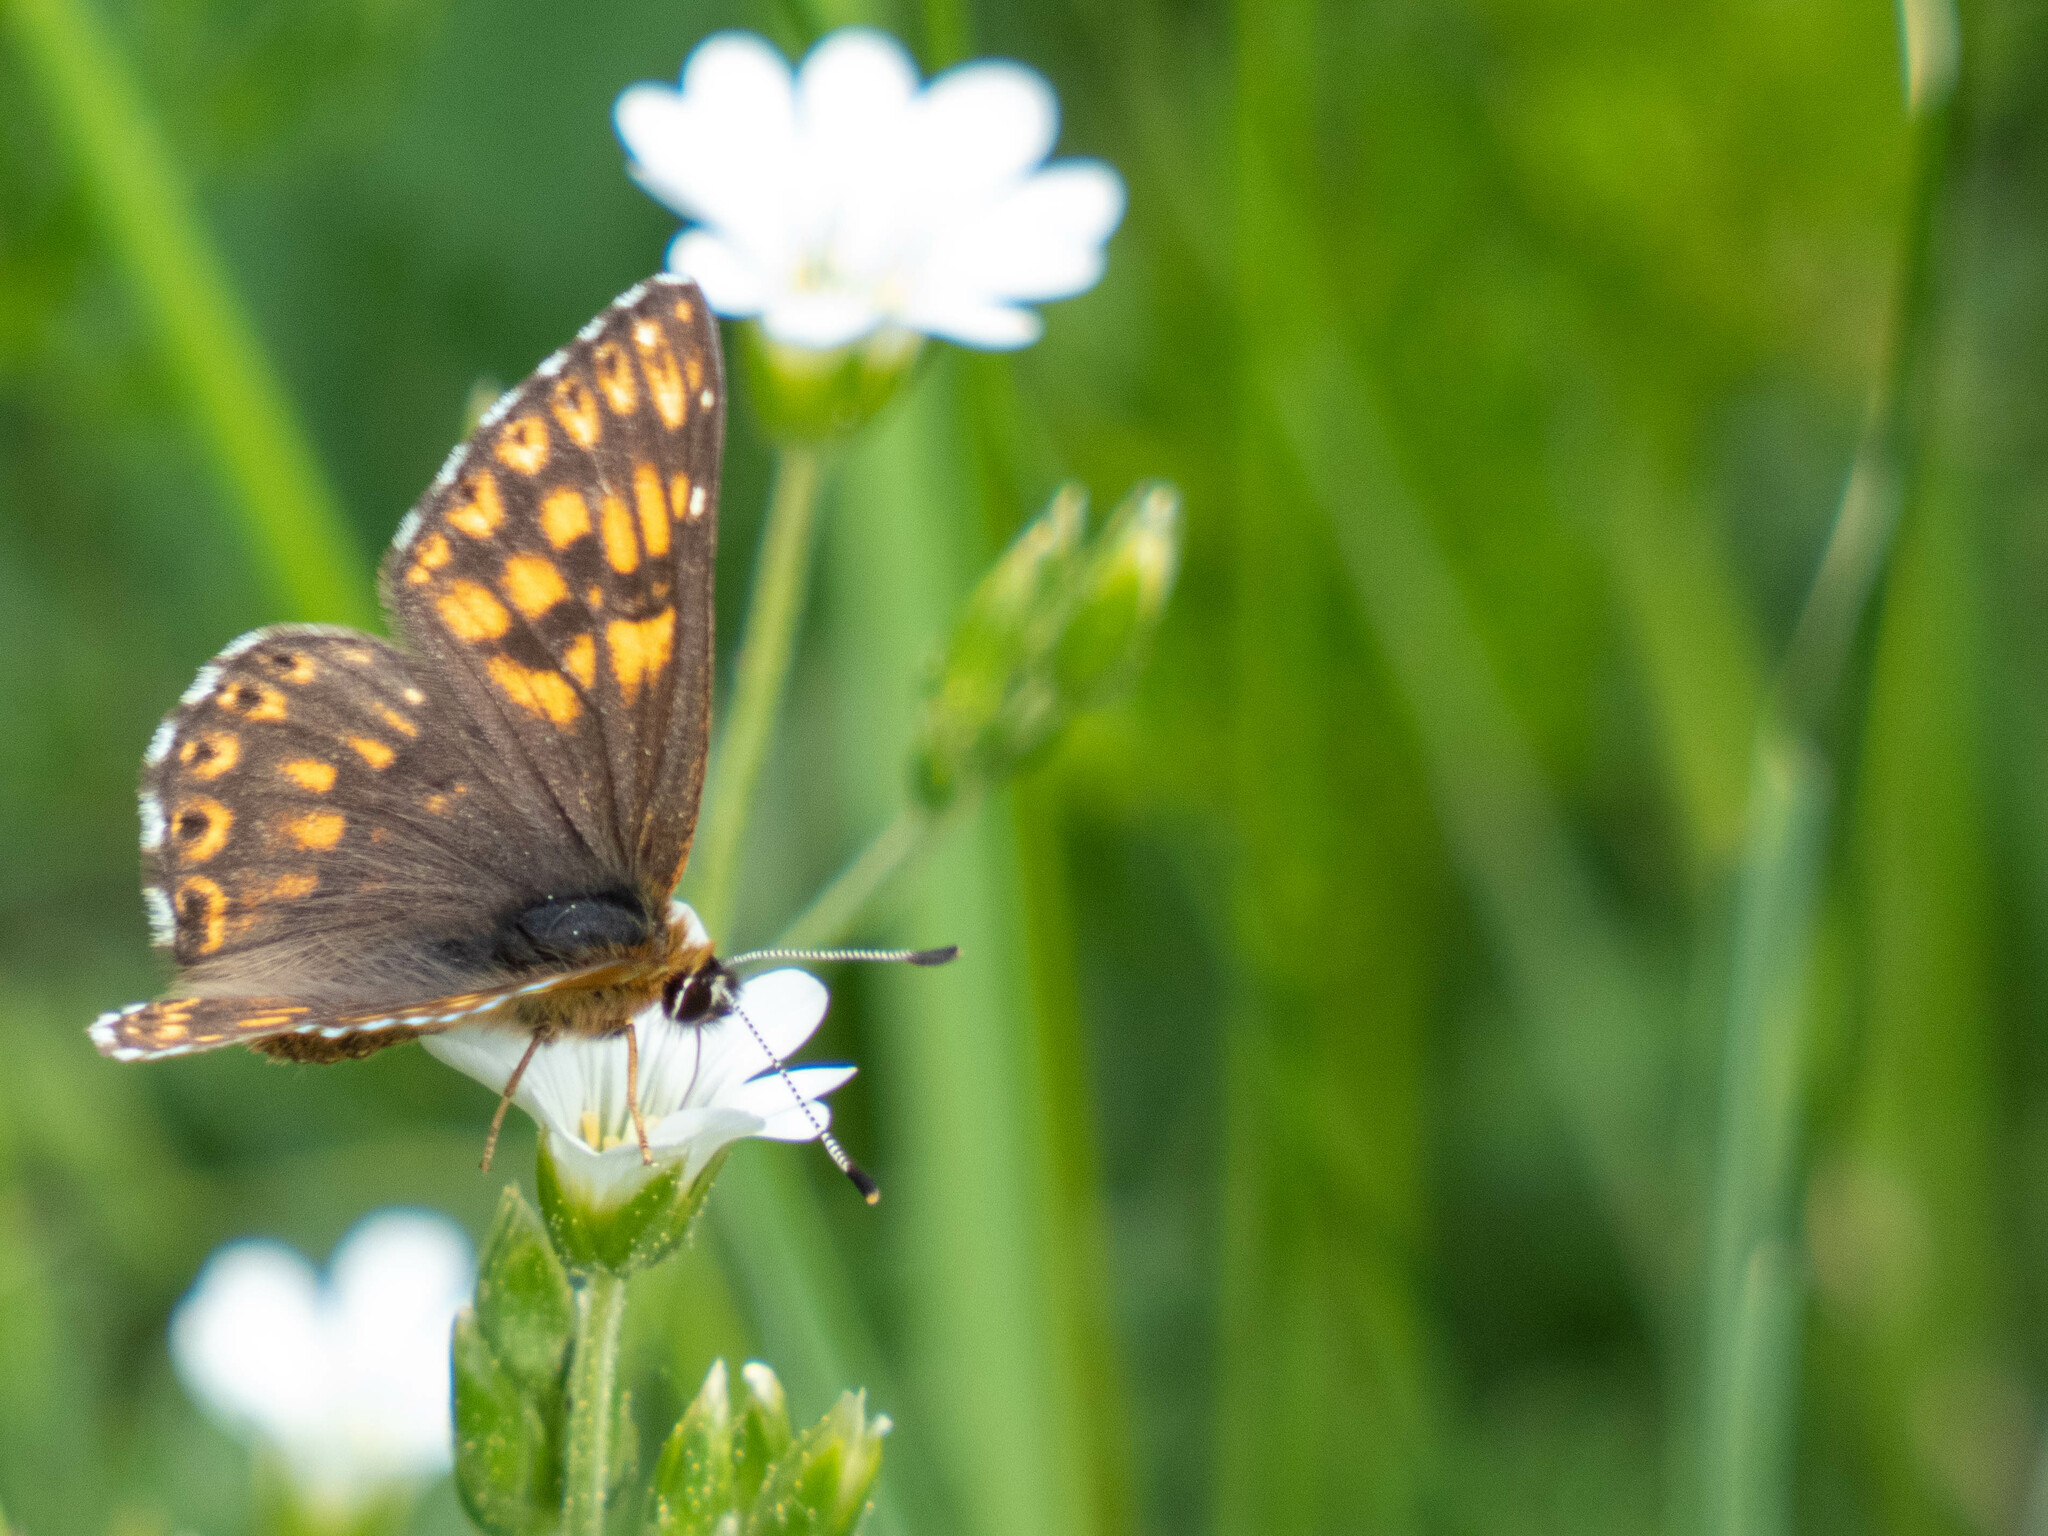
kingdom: Animalia
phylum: Arthropoda
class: Insecta
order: Lepidoptera
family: Riodinidae
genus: Hamearis
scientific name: Hamearis lucina
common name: Duke of burgundy fritillary
